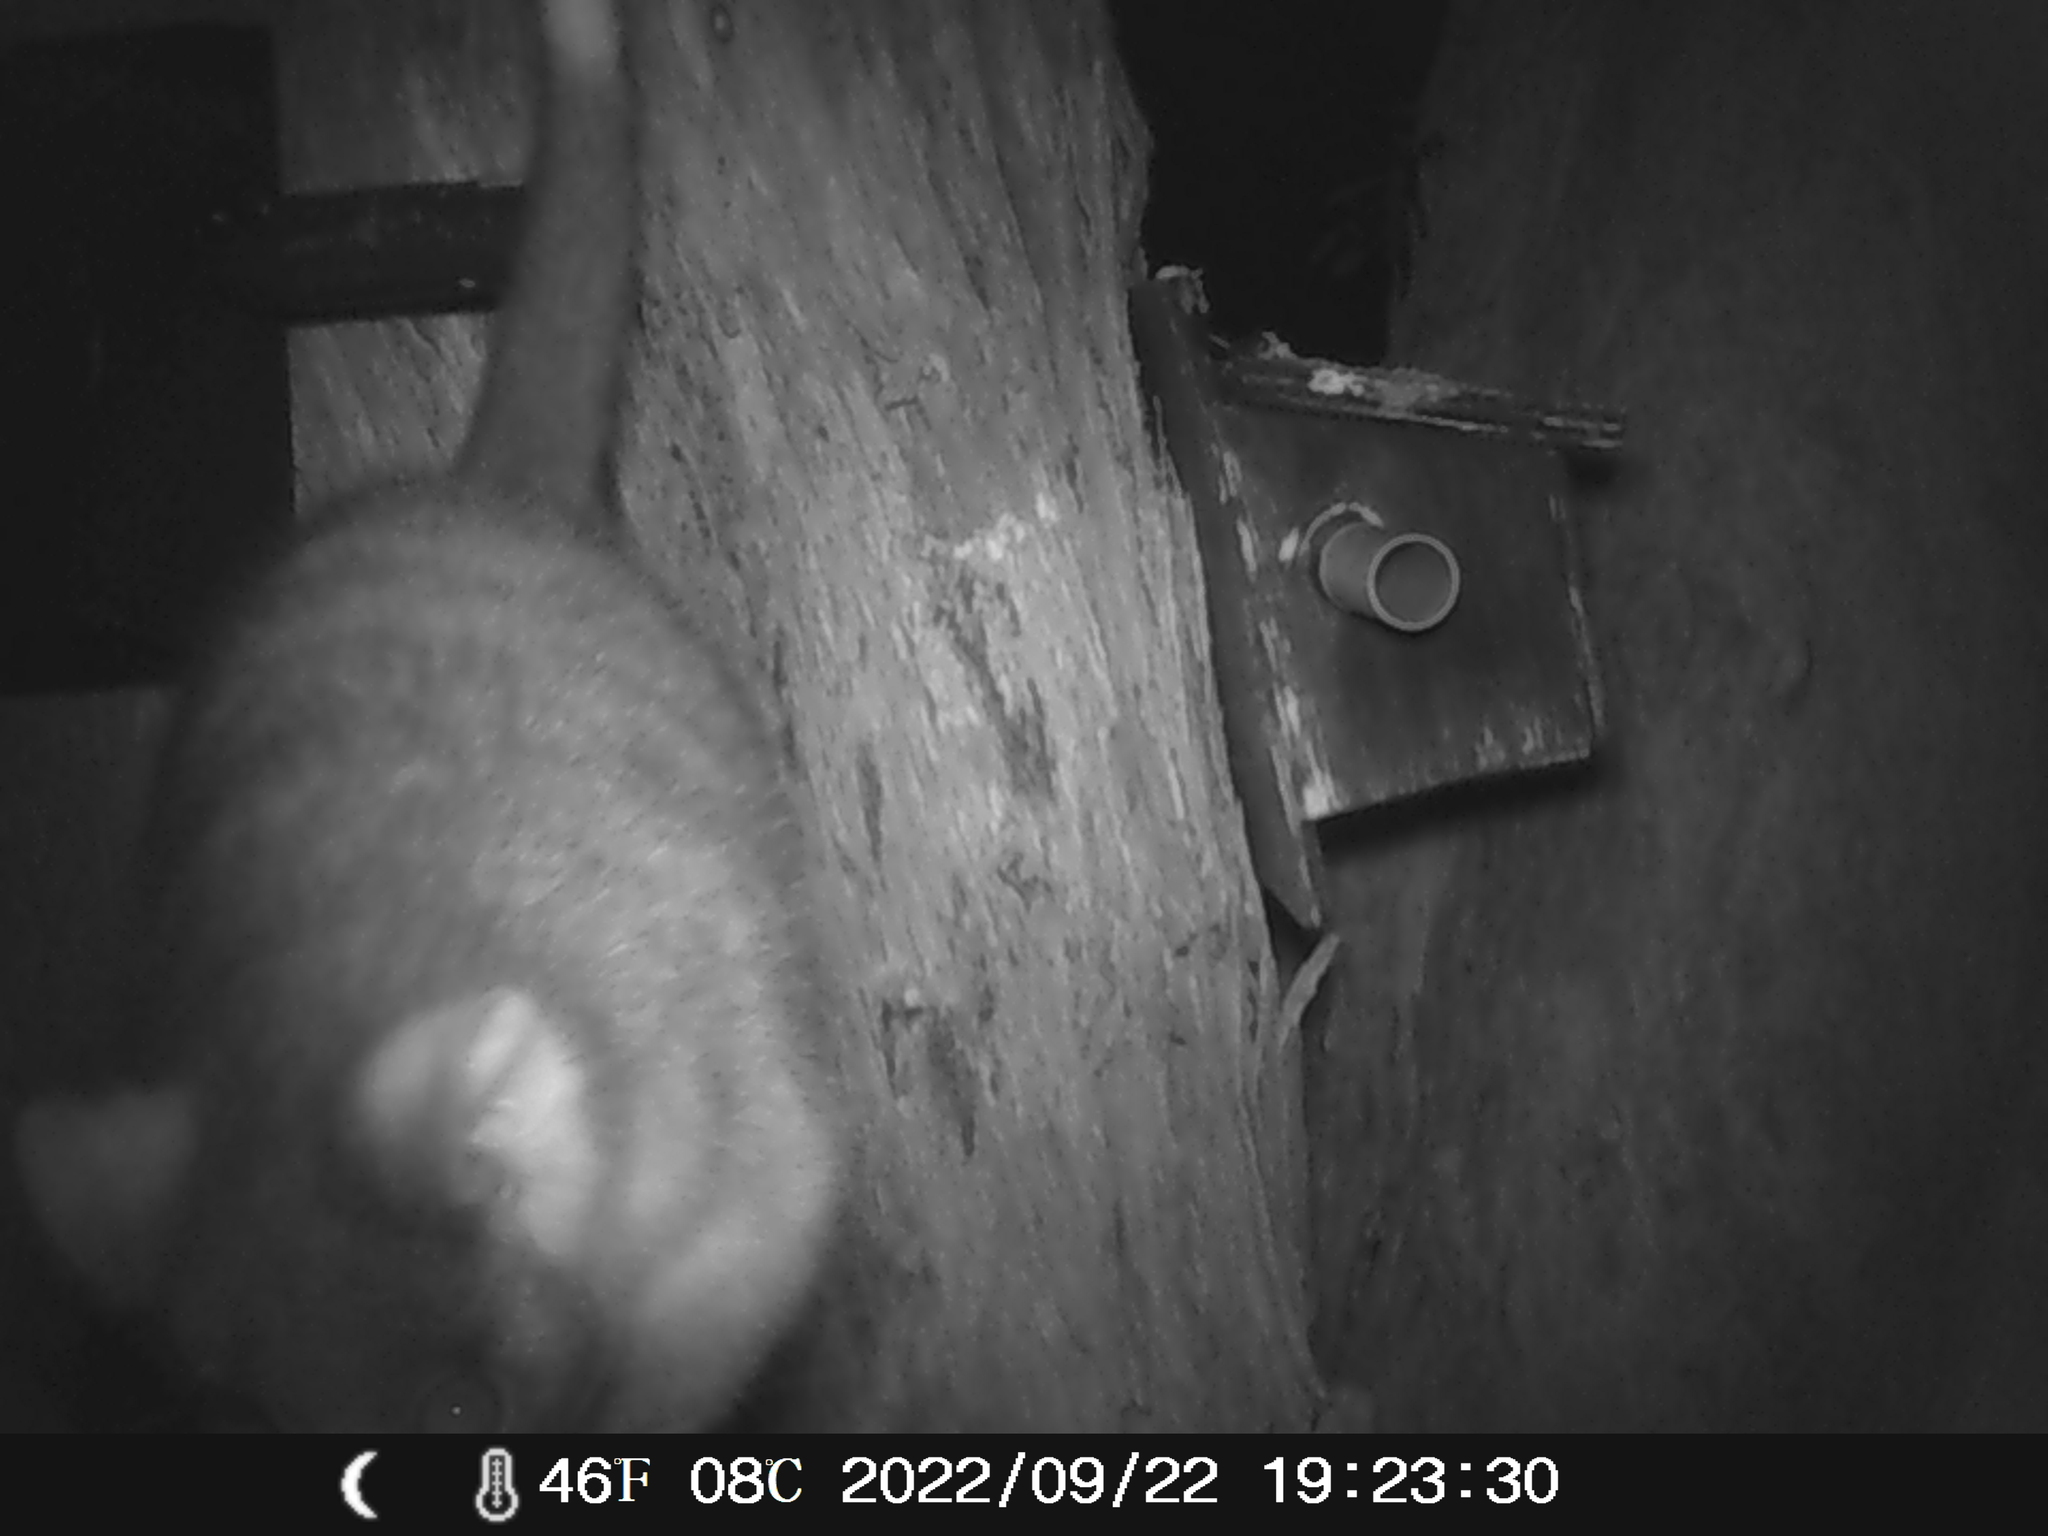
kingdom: Animalia
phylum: Chordata
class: Mammalia
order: Diprotodontia
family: Pseudocheiridae
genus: Pseudocheirus
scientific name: Pseudocheirus peregrinus
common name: Common ringtail possum
